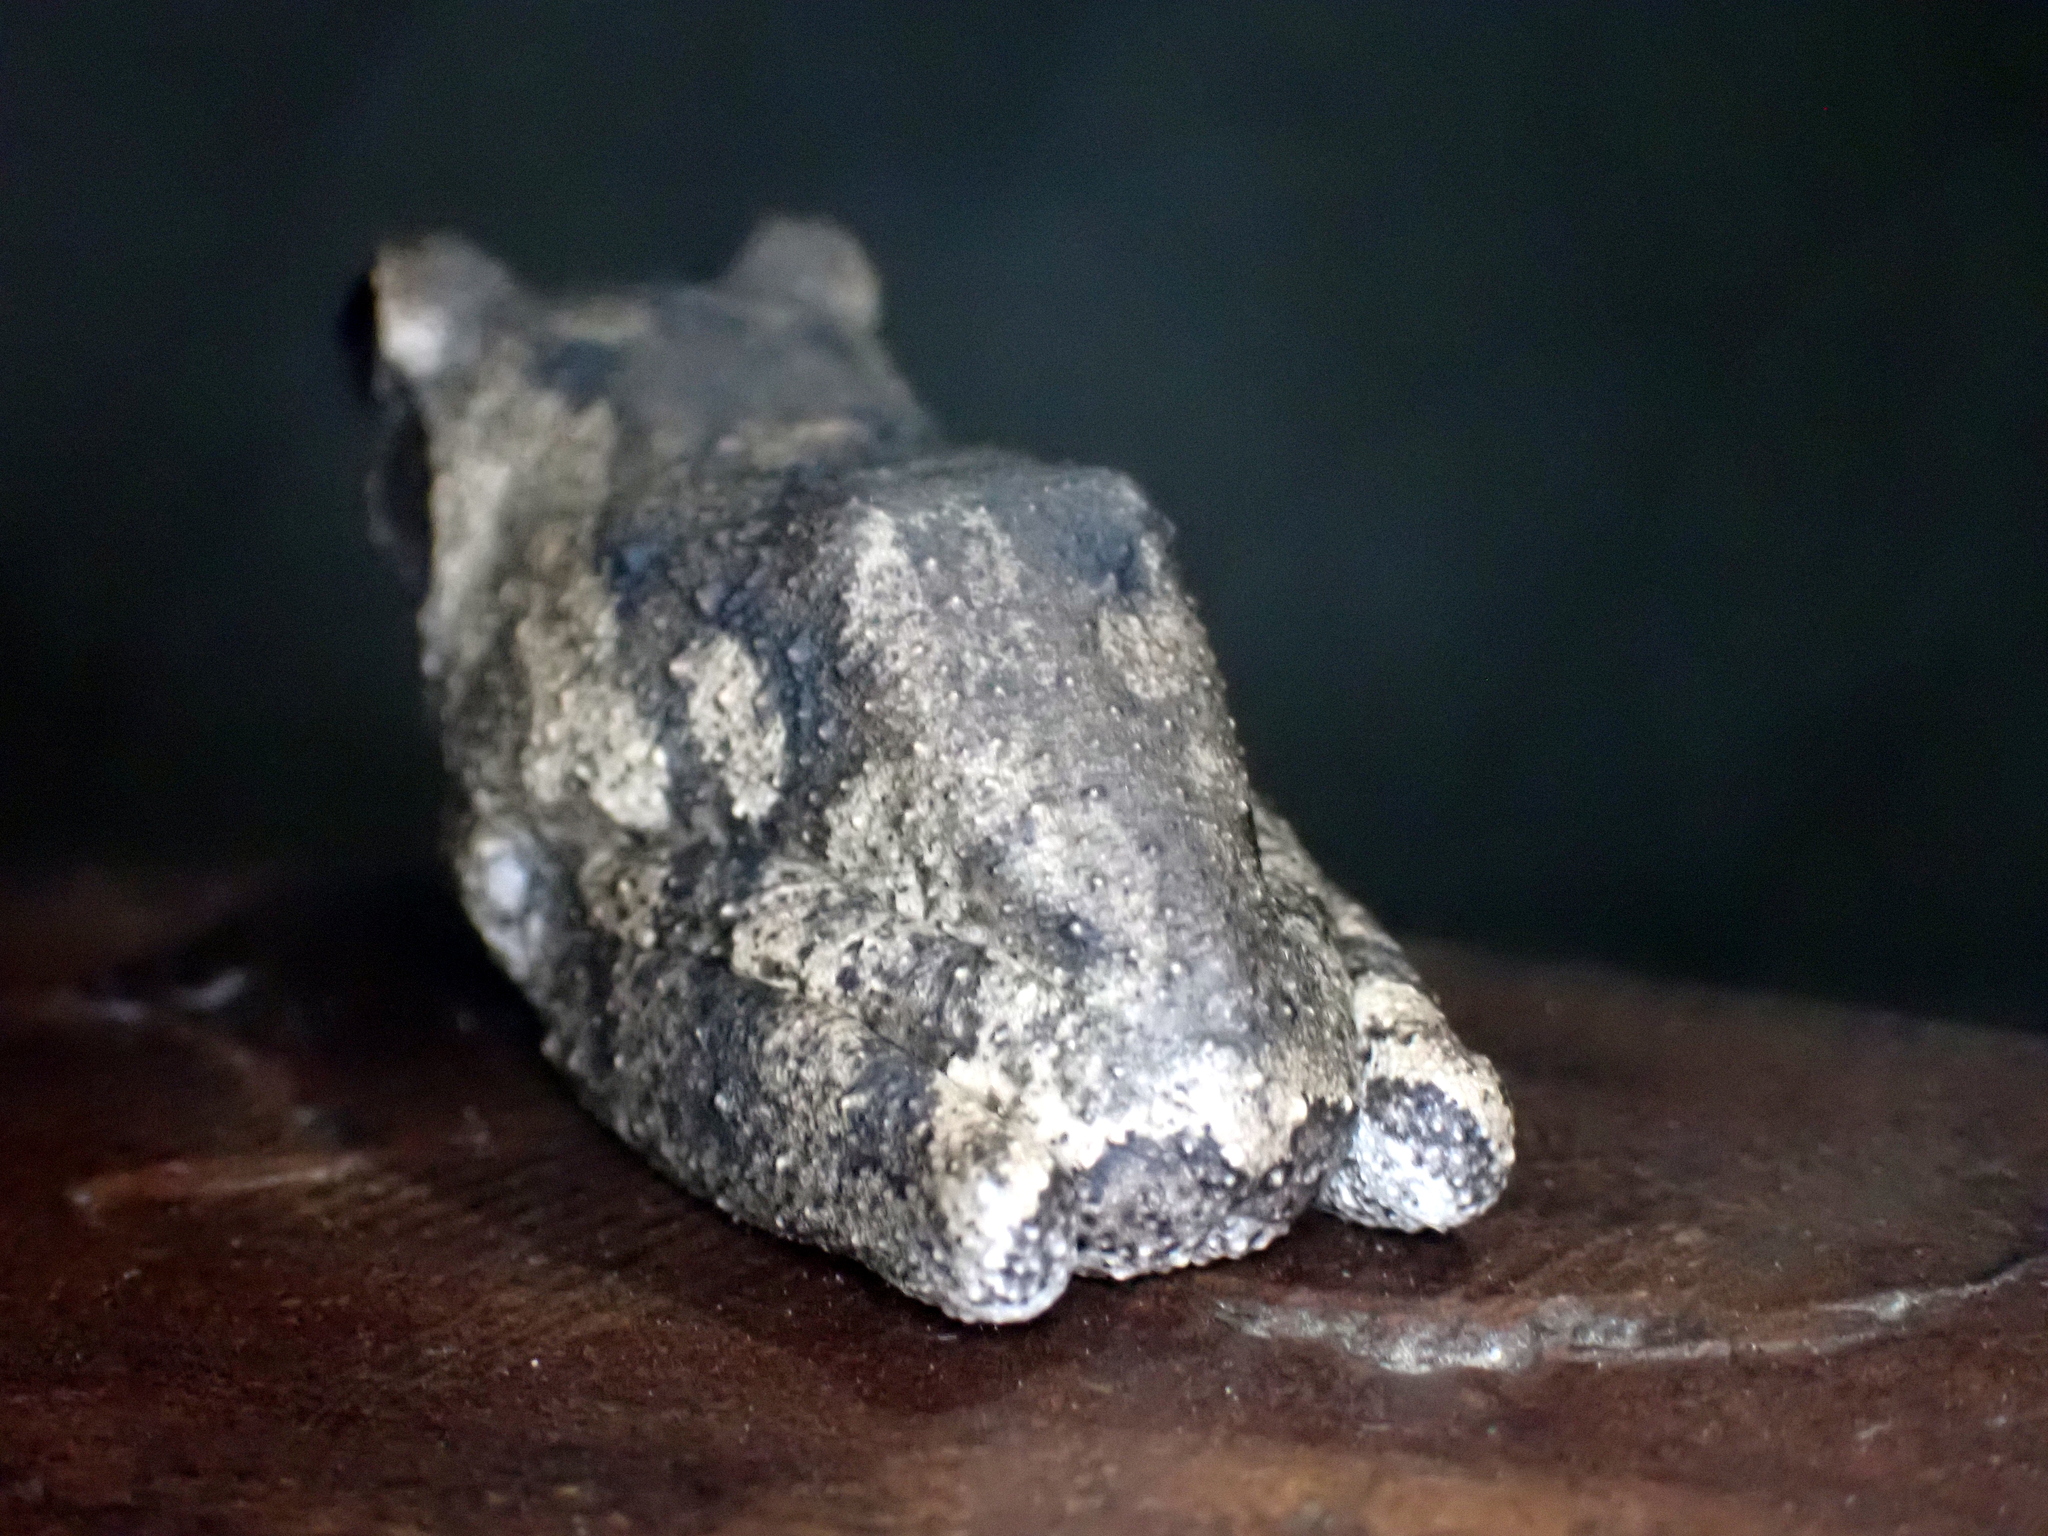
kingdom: Animalia
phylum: Chordata
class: Amphibia
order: Anura
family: Rhacophoridae
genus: Chiromantis
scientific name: Chiromantis xerampelina
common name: African gray treefrog
